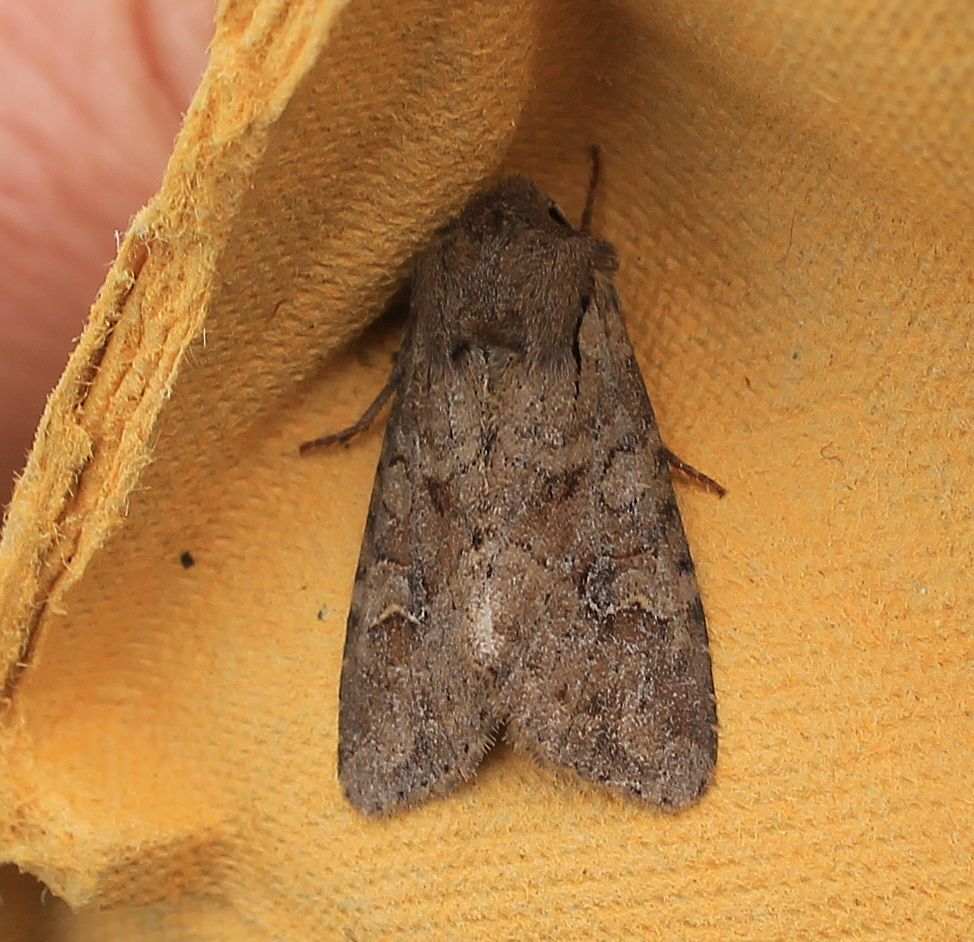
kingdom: Animalia
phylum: Arthropoda
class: Insecta
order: Lepidoptera
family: Noctuidae
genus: Apamea
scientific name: Apamea sordens
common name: Rustic shoulder-knot
